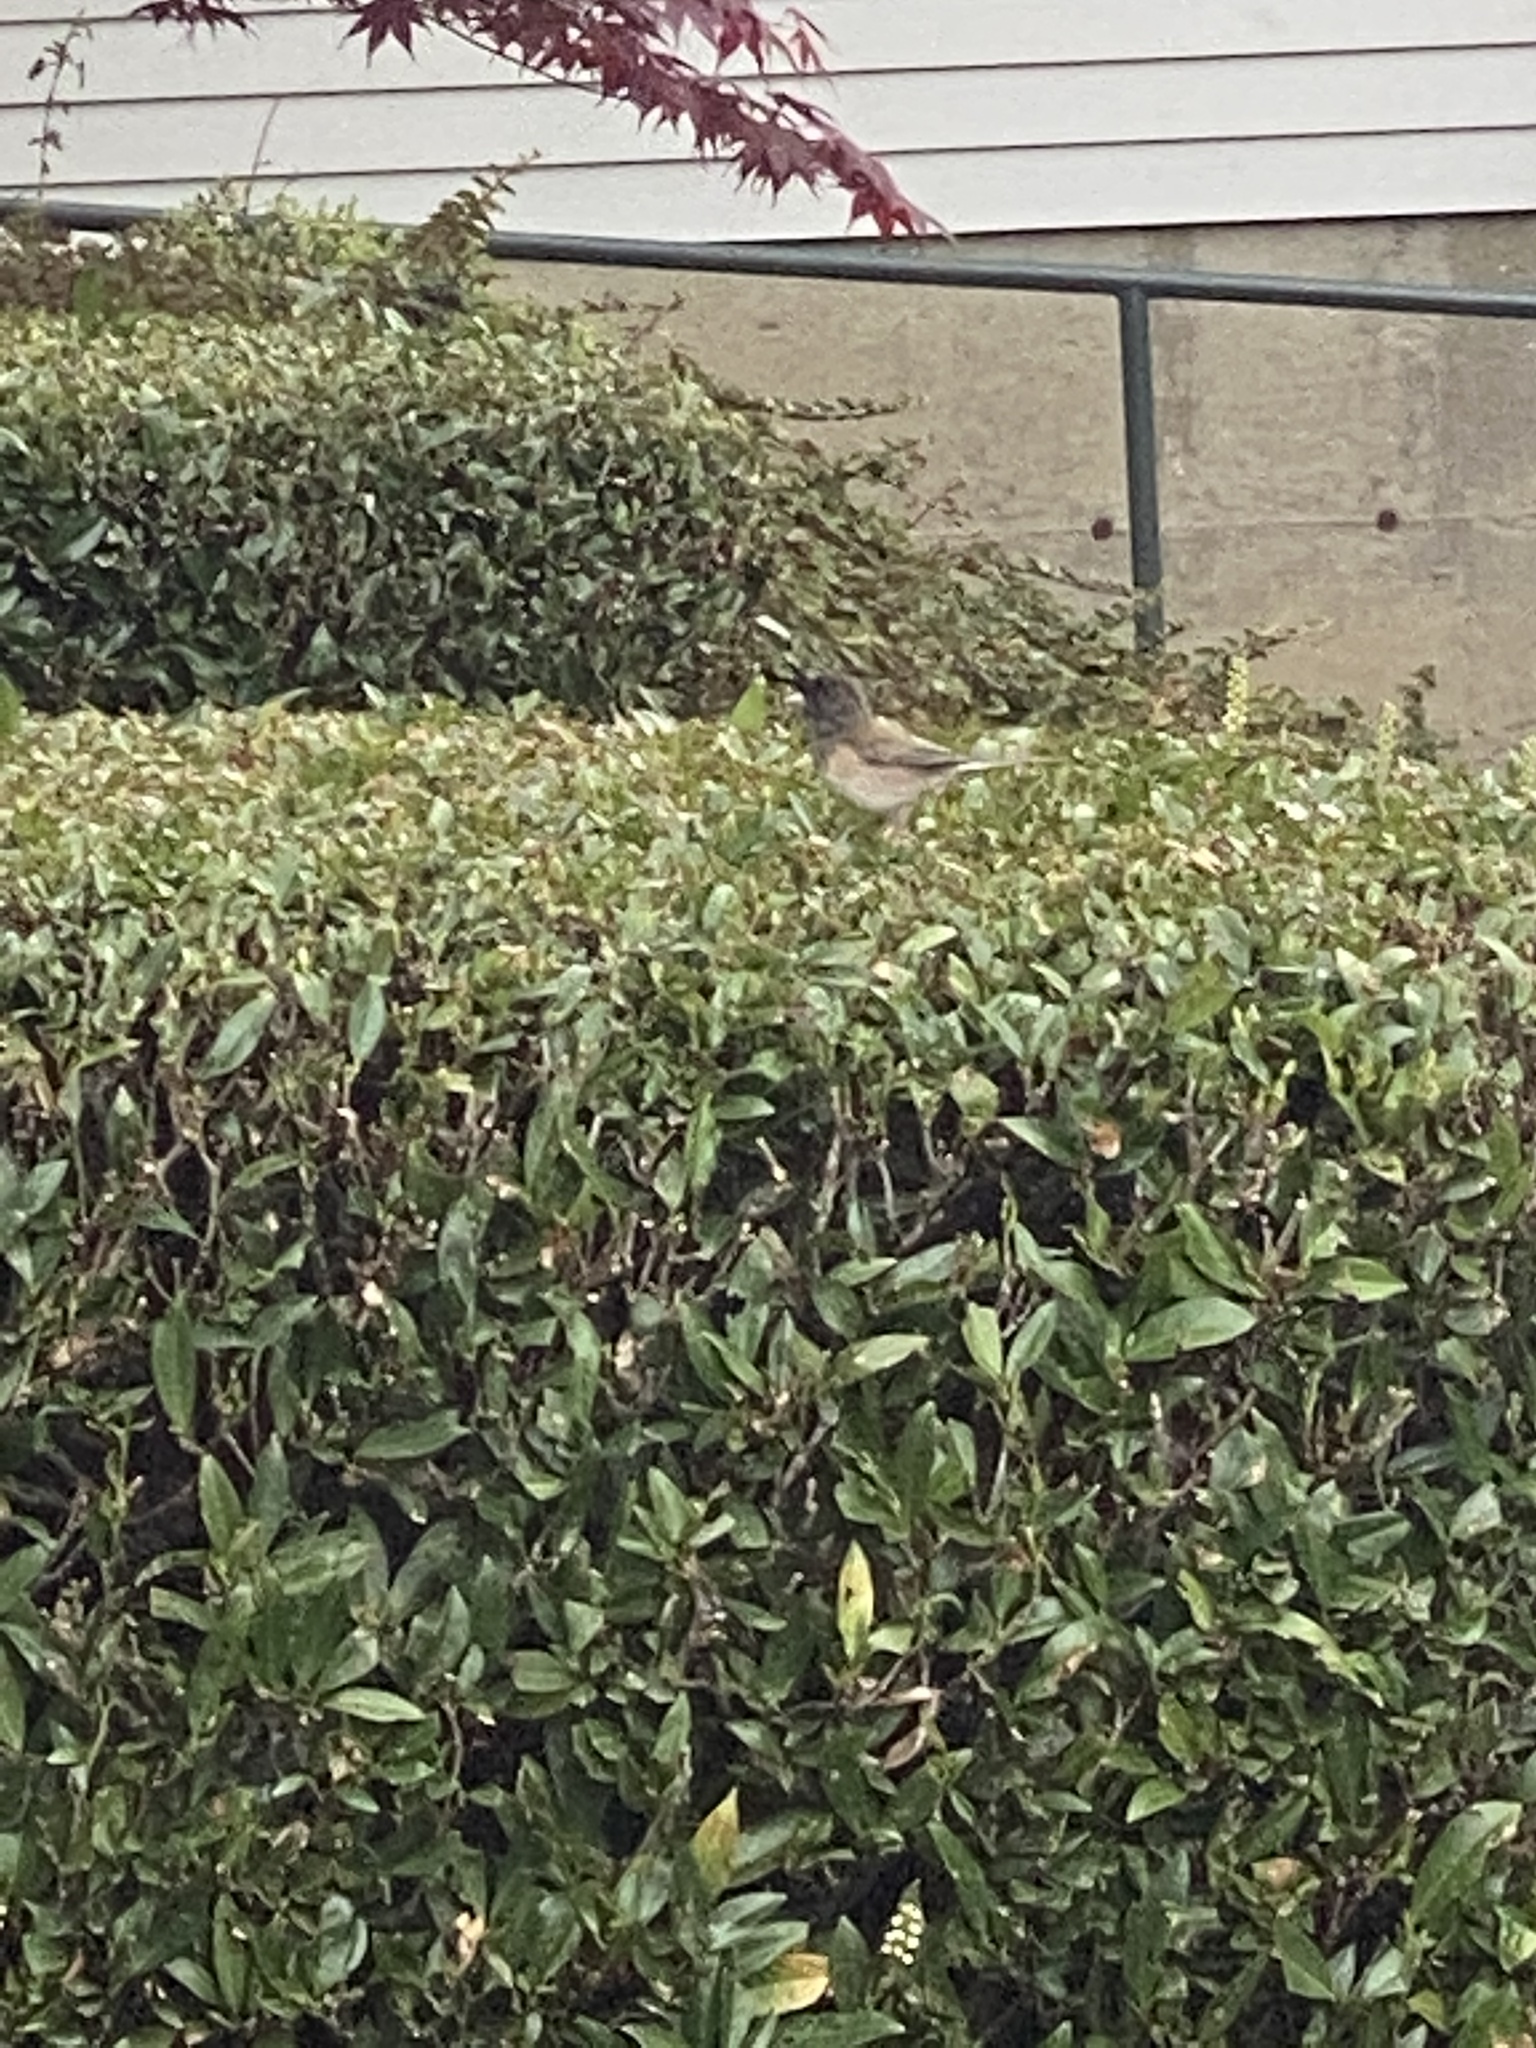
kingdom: Animalia
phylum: Chordata
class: Aves
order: Passeriformes
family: Passerellidae
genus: Junco
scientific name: Junco hyemalis
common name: Dark-eyed junco
